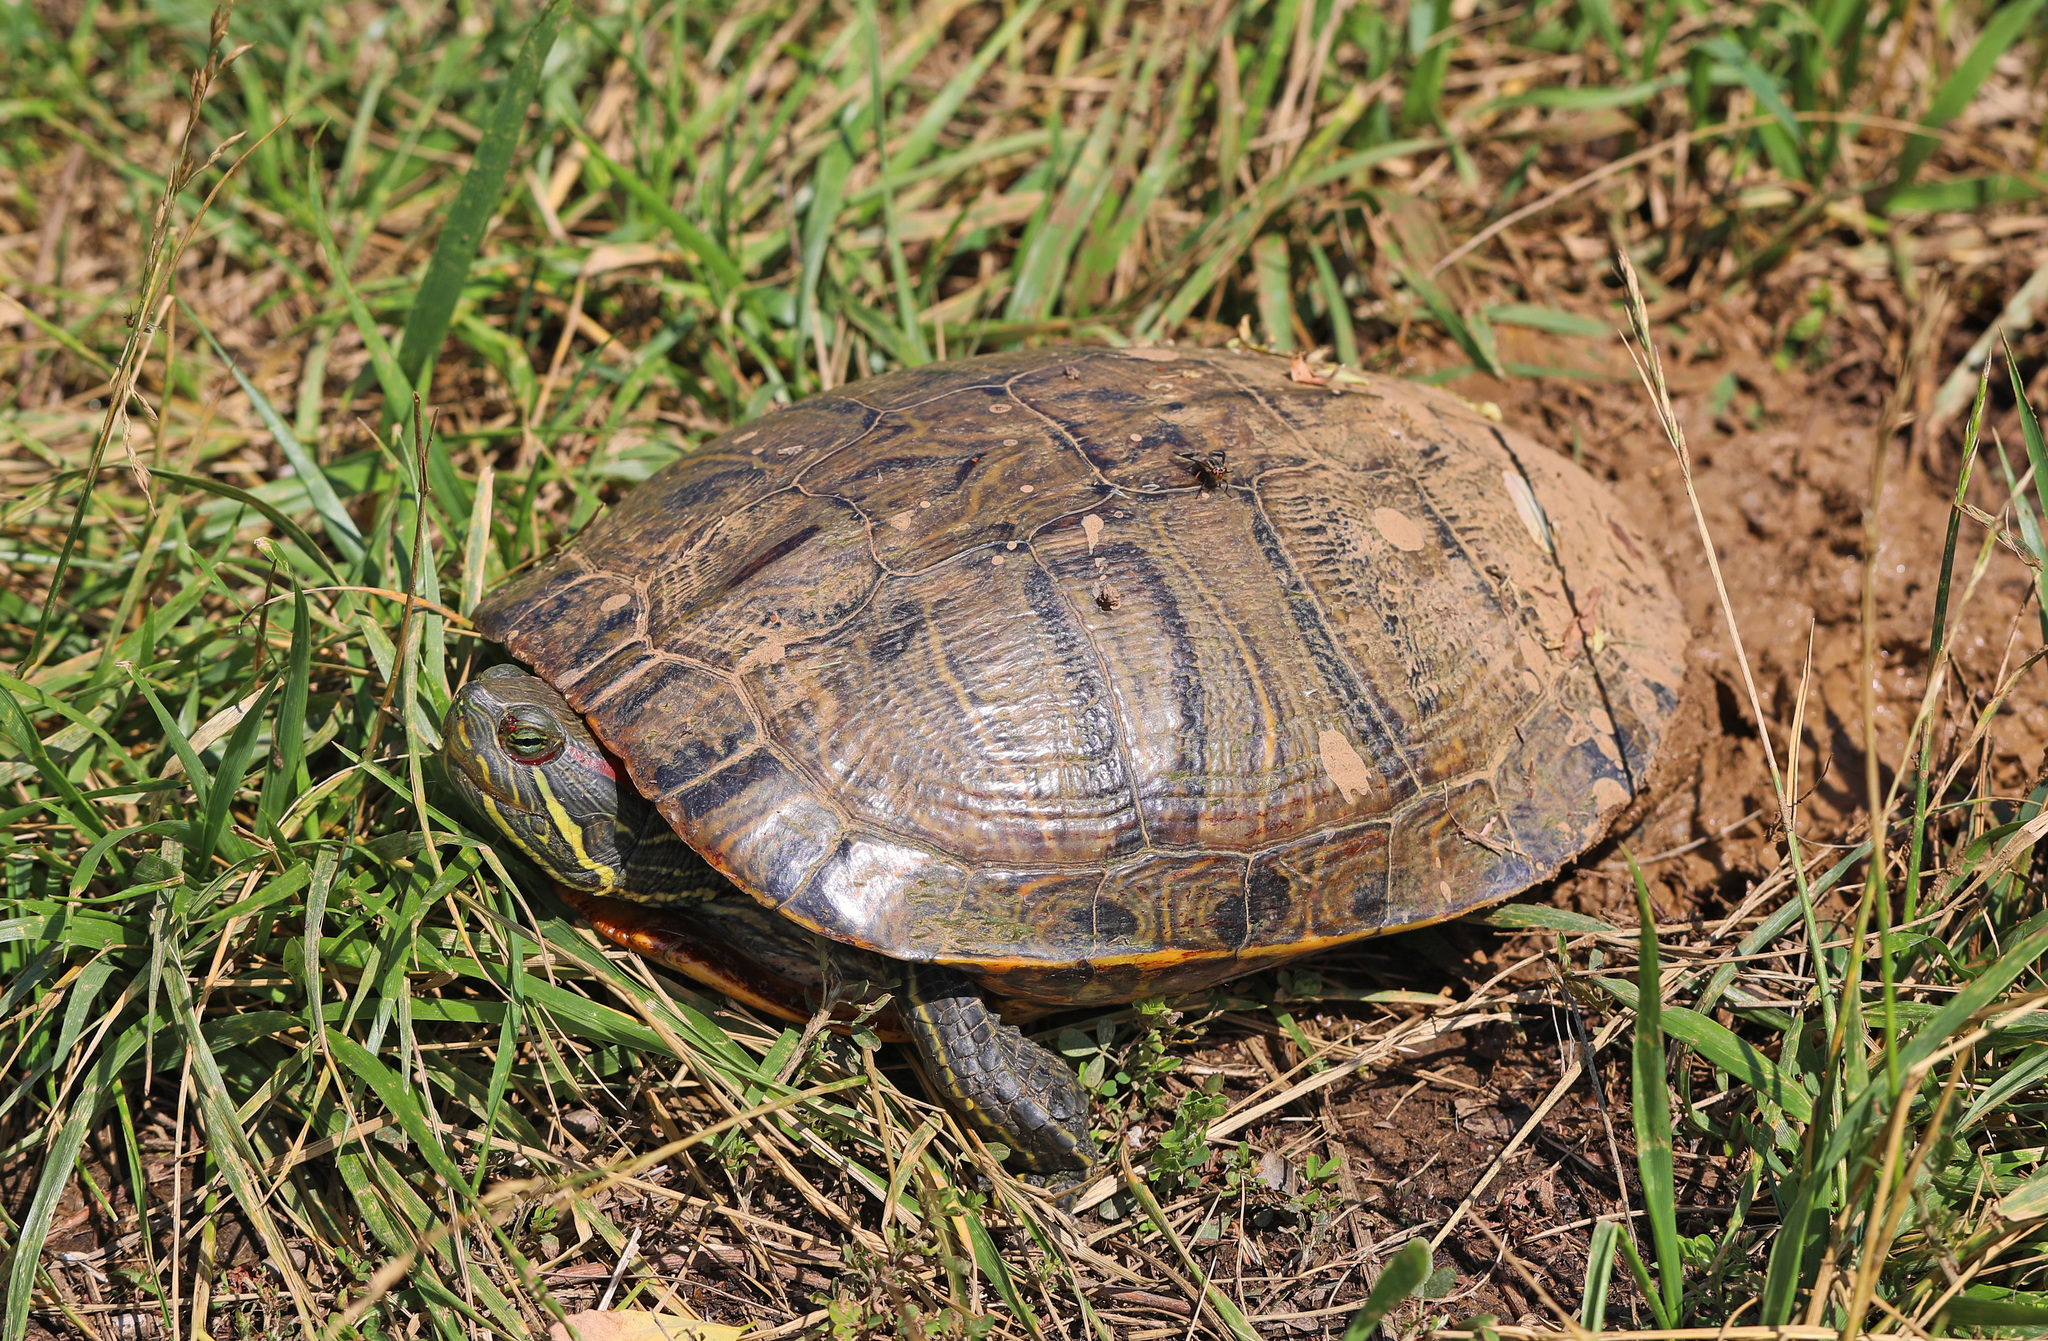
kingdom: Animalia
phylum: Chordata
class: Testudines
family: Emydidae
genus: Trachemys
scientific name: Trachemys scripta
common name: Slider
